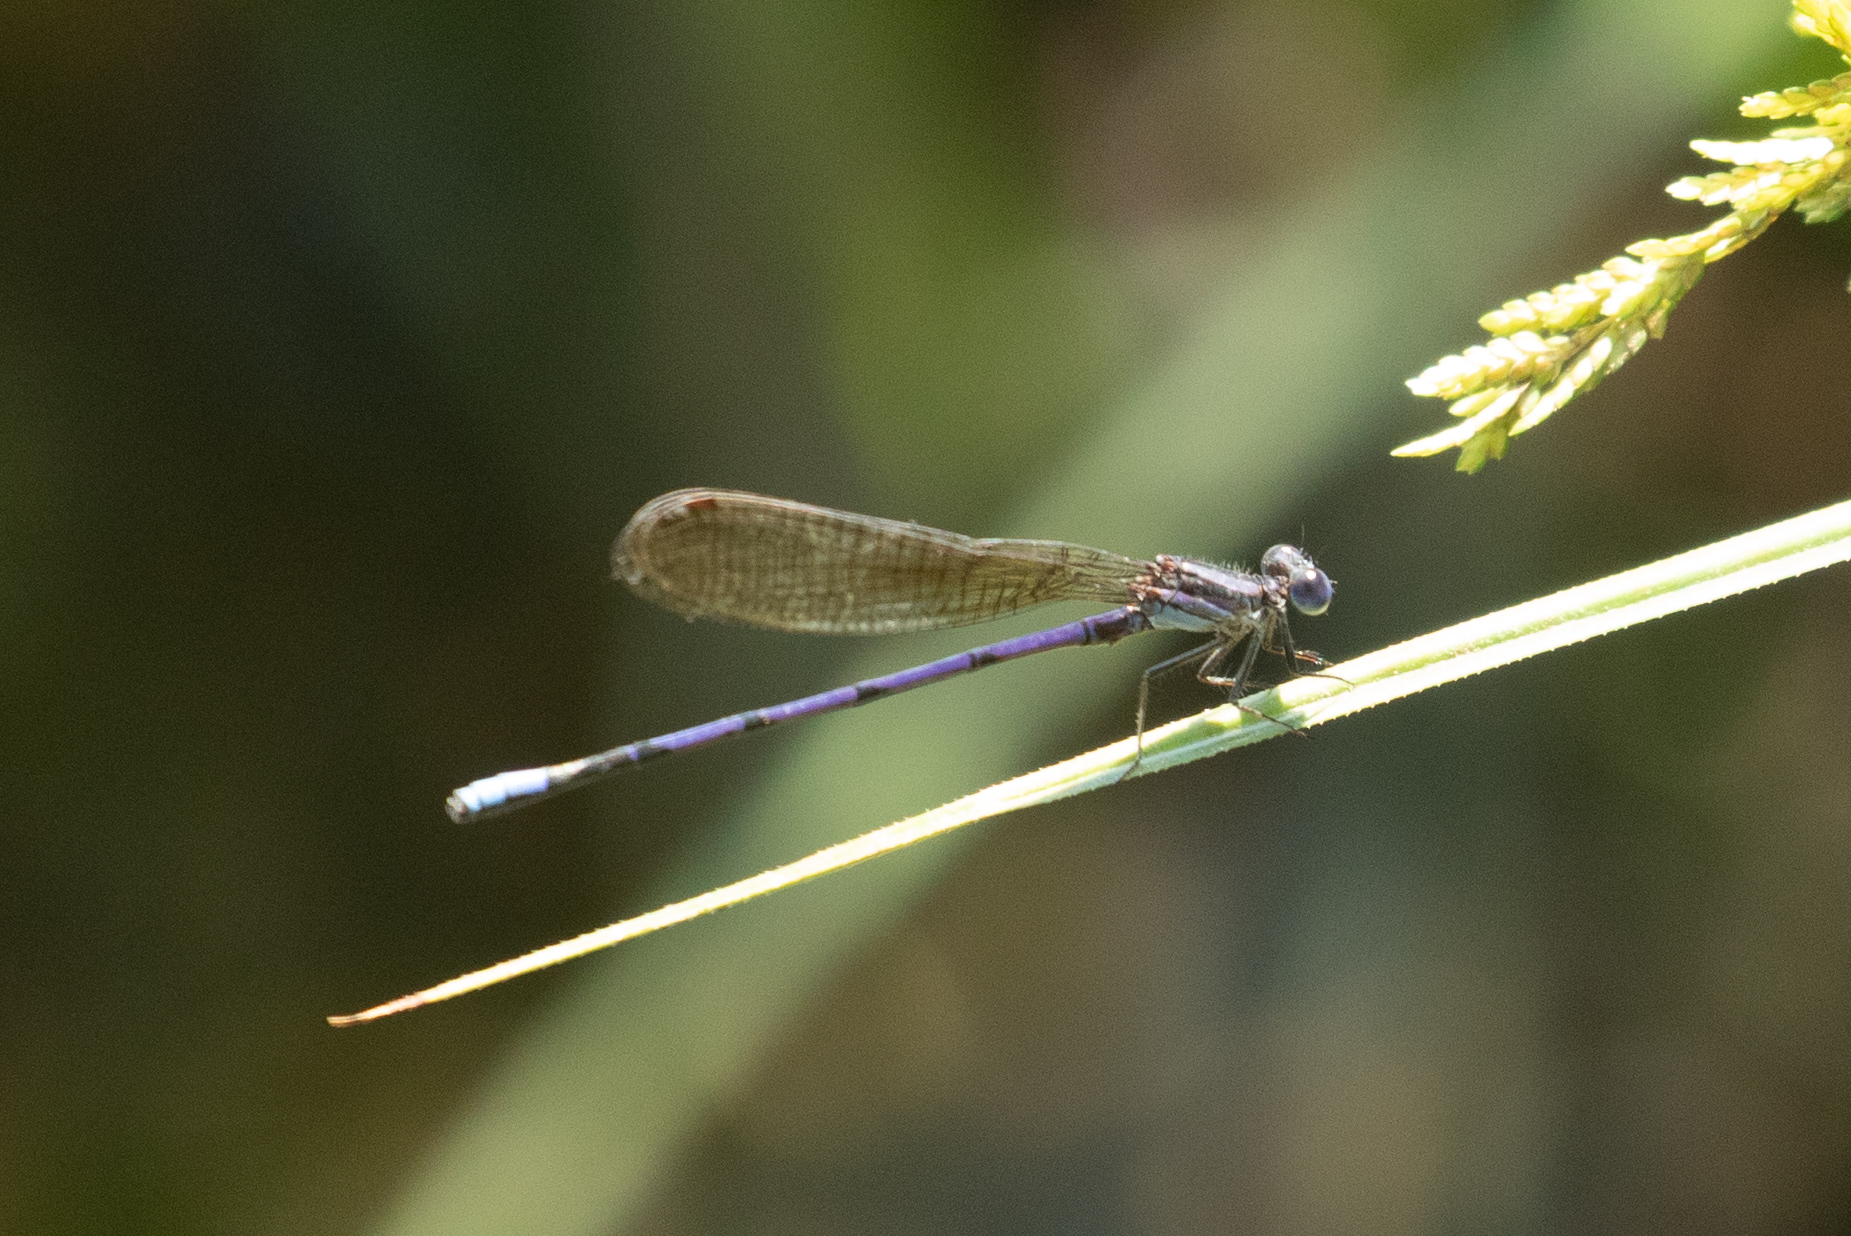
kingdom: Animalia
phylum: Arthropoda
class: Insecta
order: Odonata
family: Coenagrionidae
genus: Argia
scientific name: Argia fumipennis
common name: Variable dancer
